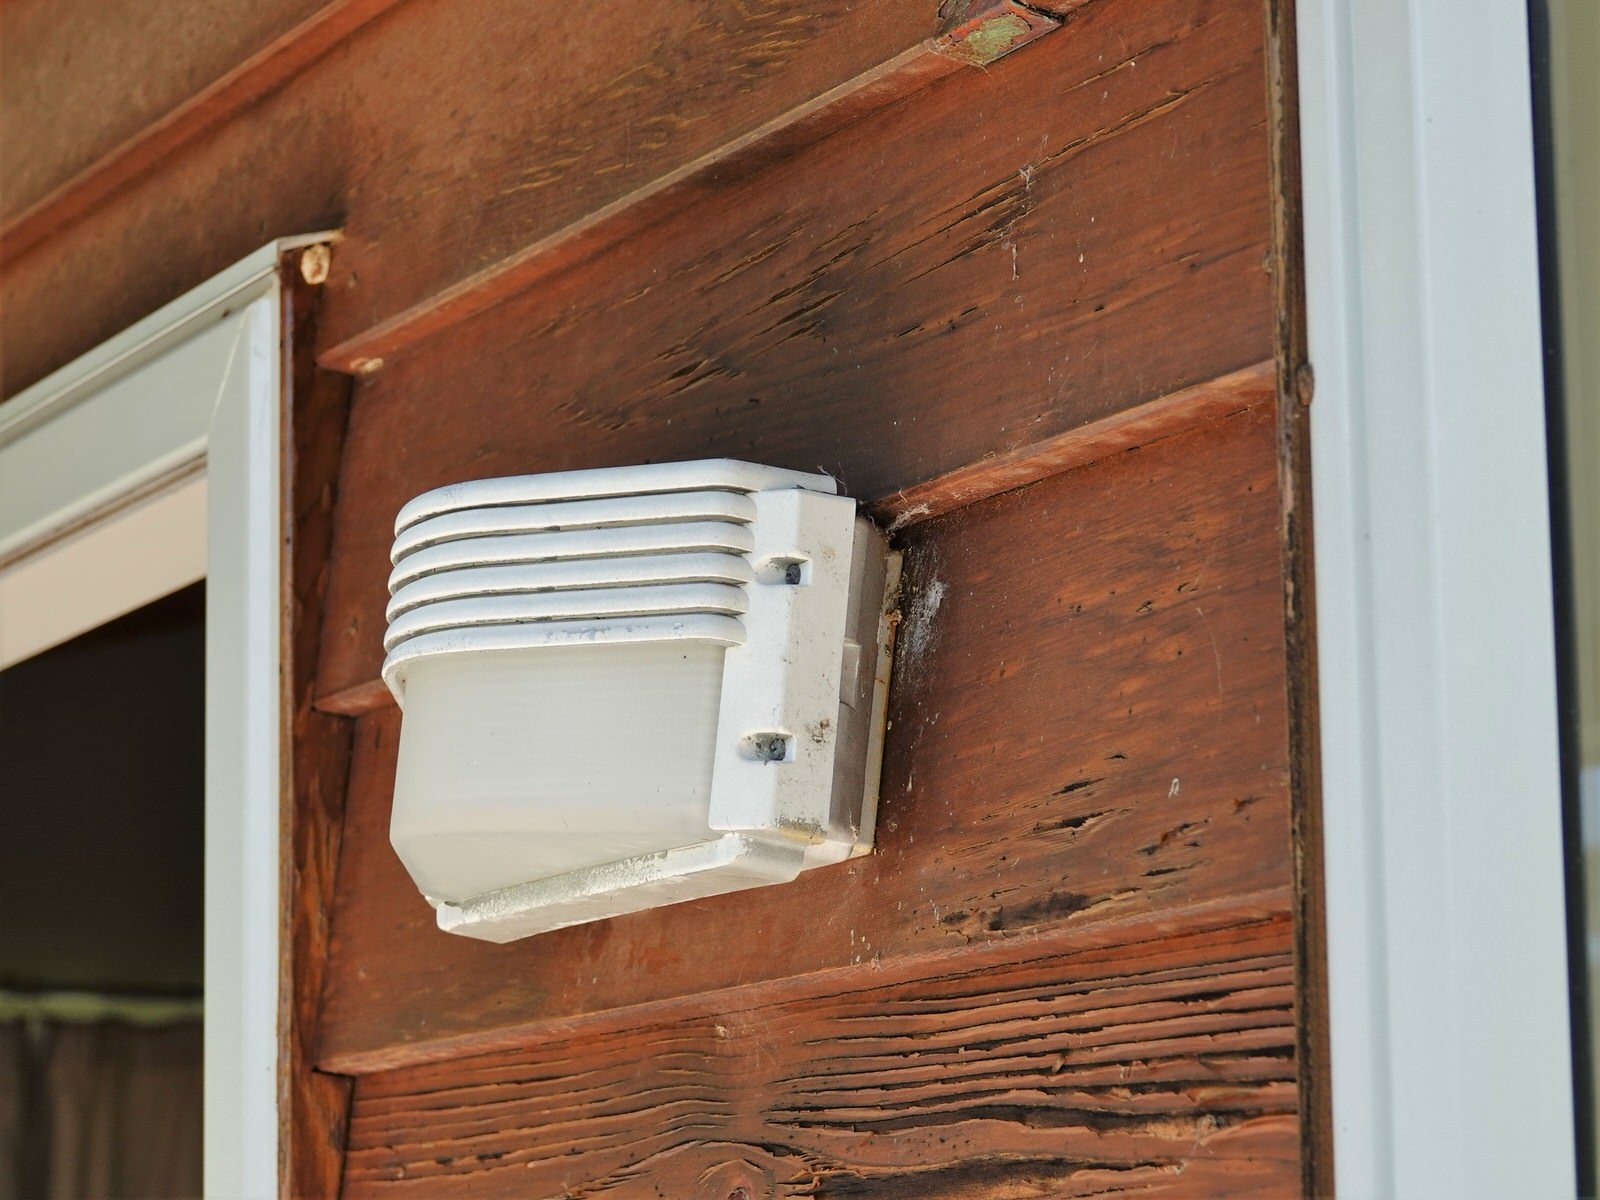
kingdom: Animalia
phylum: Arthropoda
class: Insecta
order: Hymenoptera
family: Crabronidae
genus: Pison
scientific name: Pison spinolae
